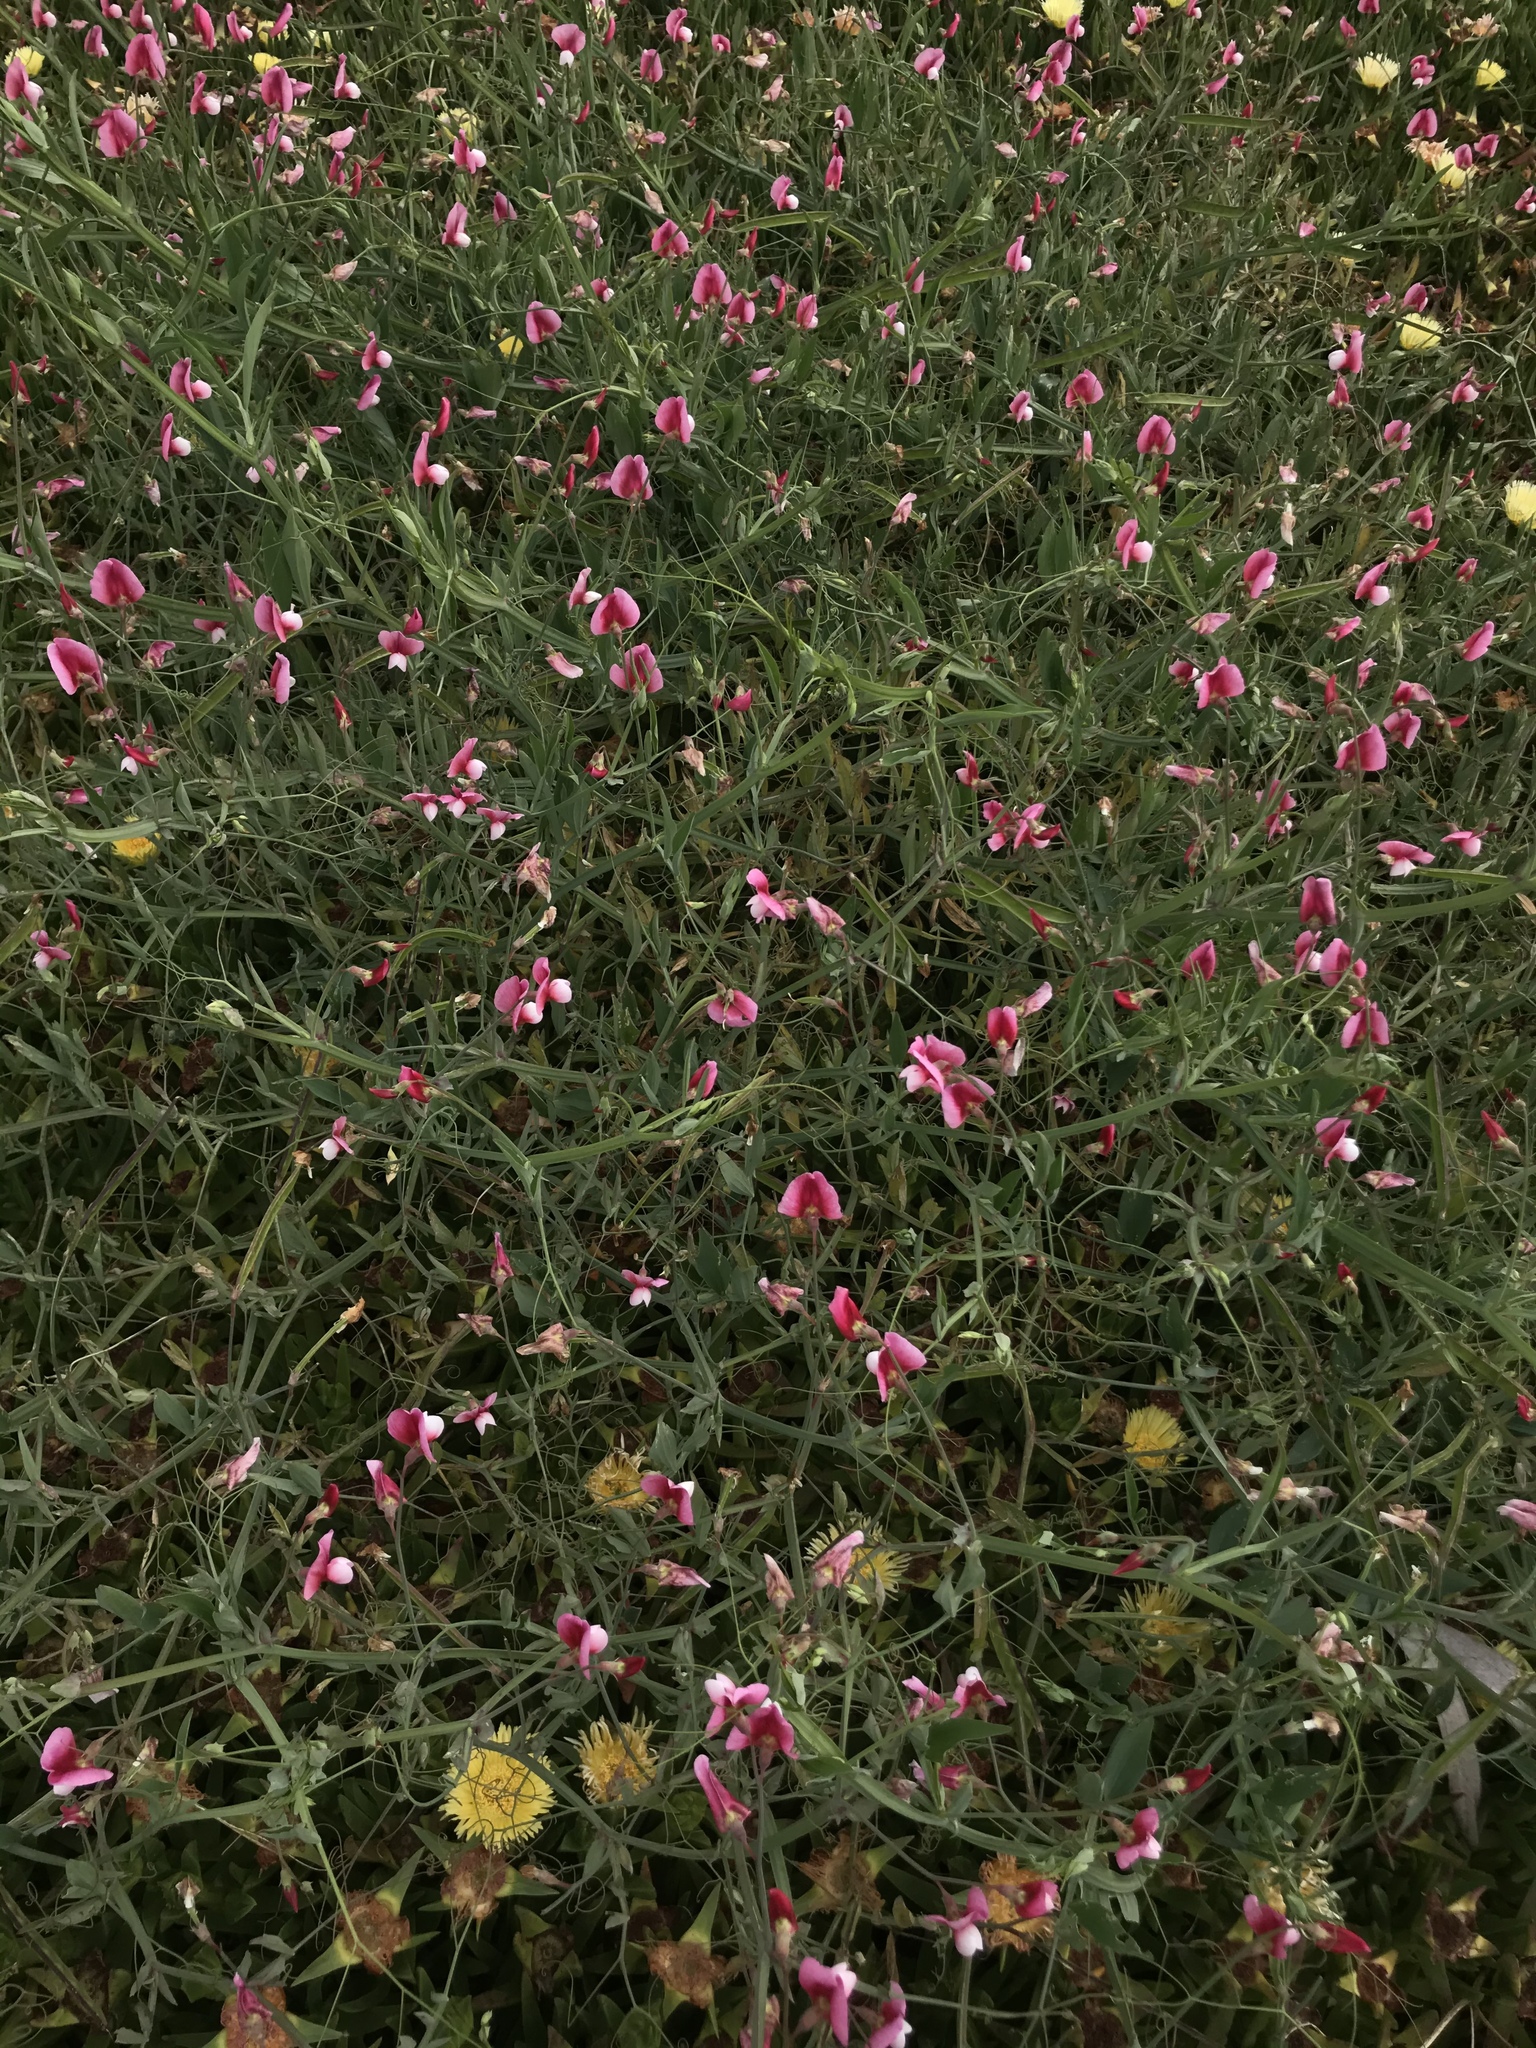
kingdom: Plantae
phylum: Tracheophyta
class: Magnoliopsida
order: Fabales
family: Fabaceae
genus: Lathyrus
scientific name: Lathyrus tingitanus
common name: Tangier pea
